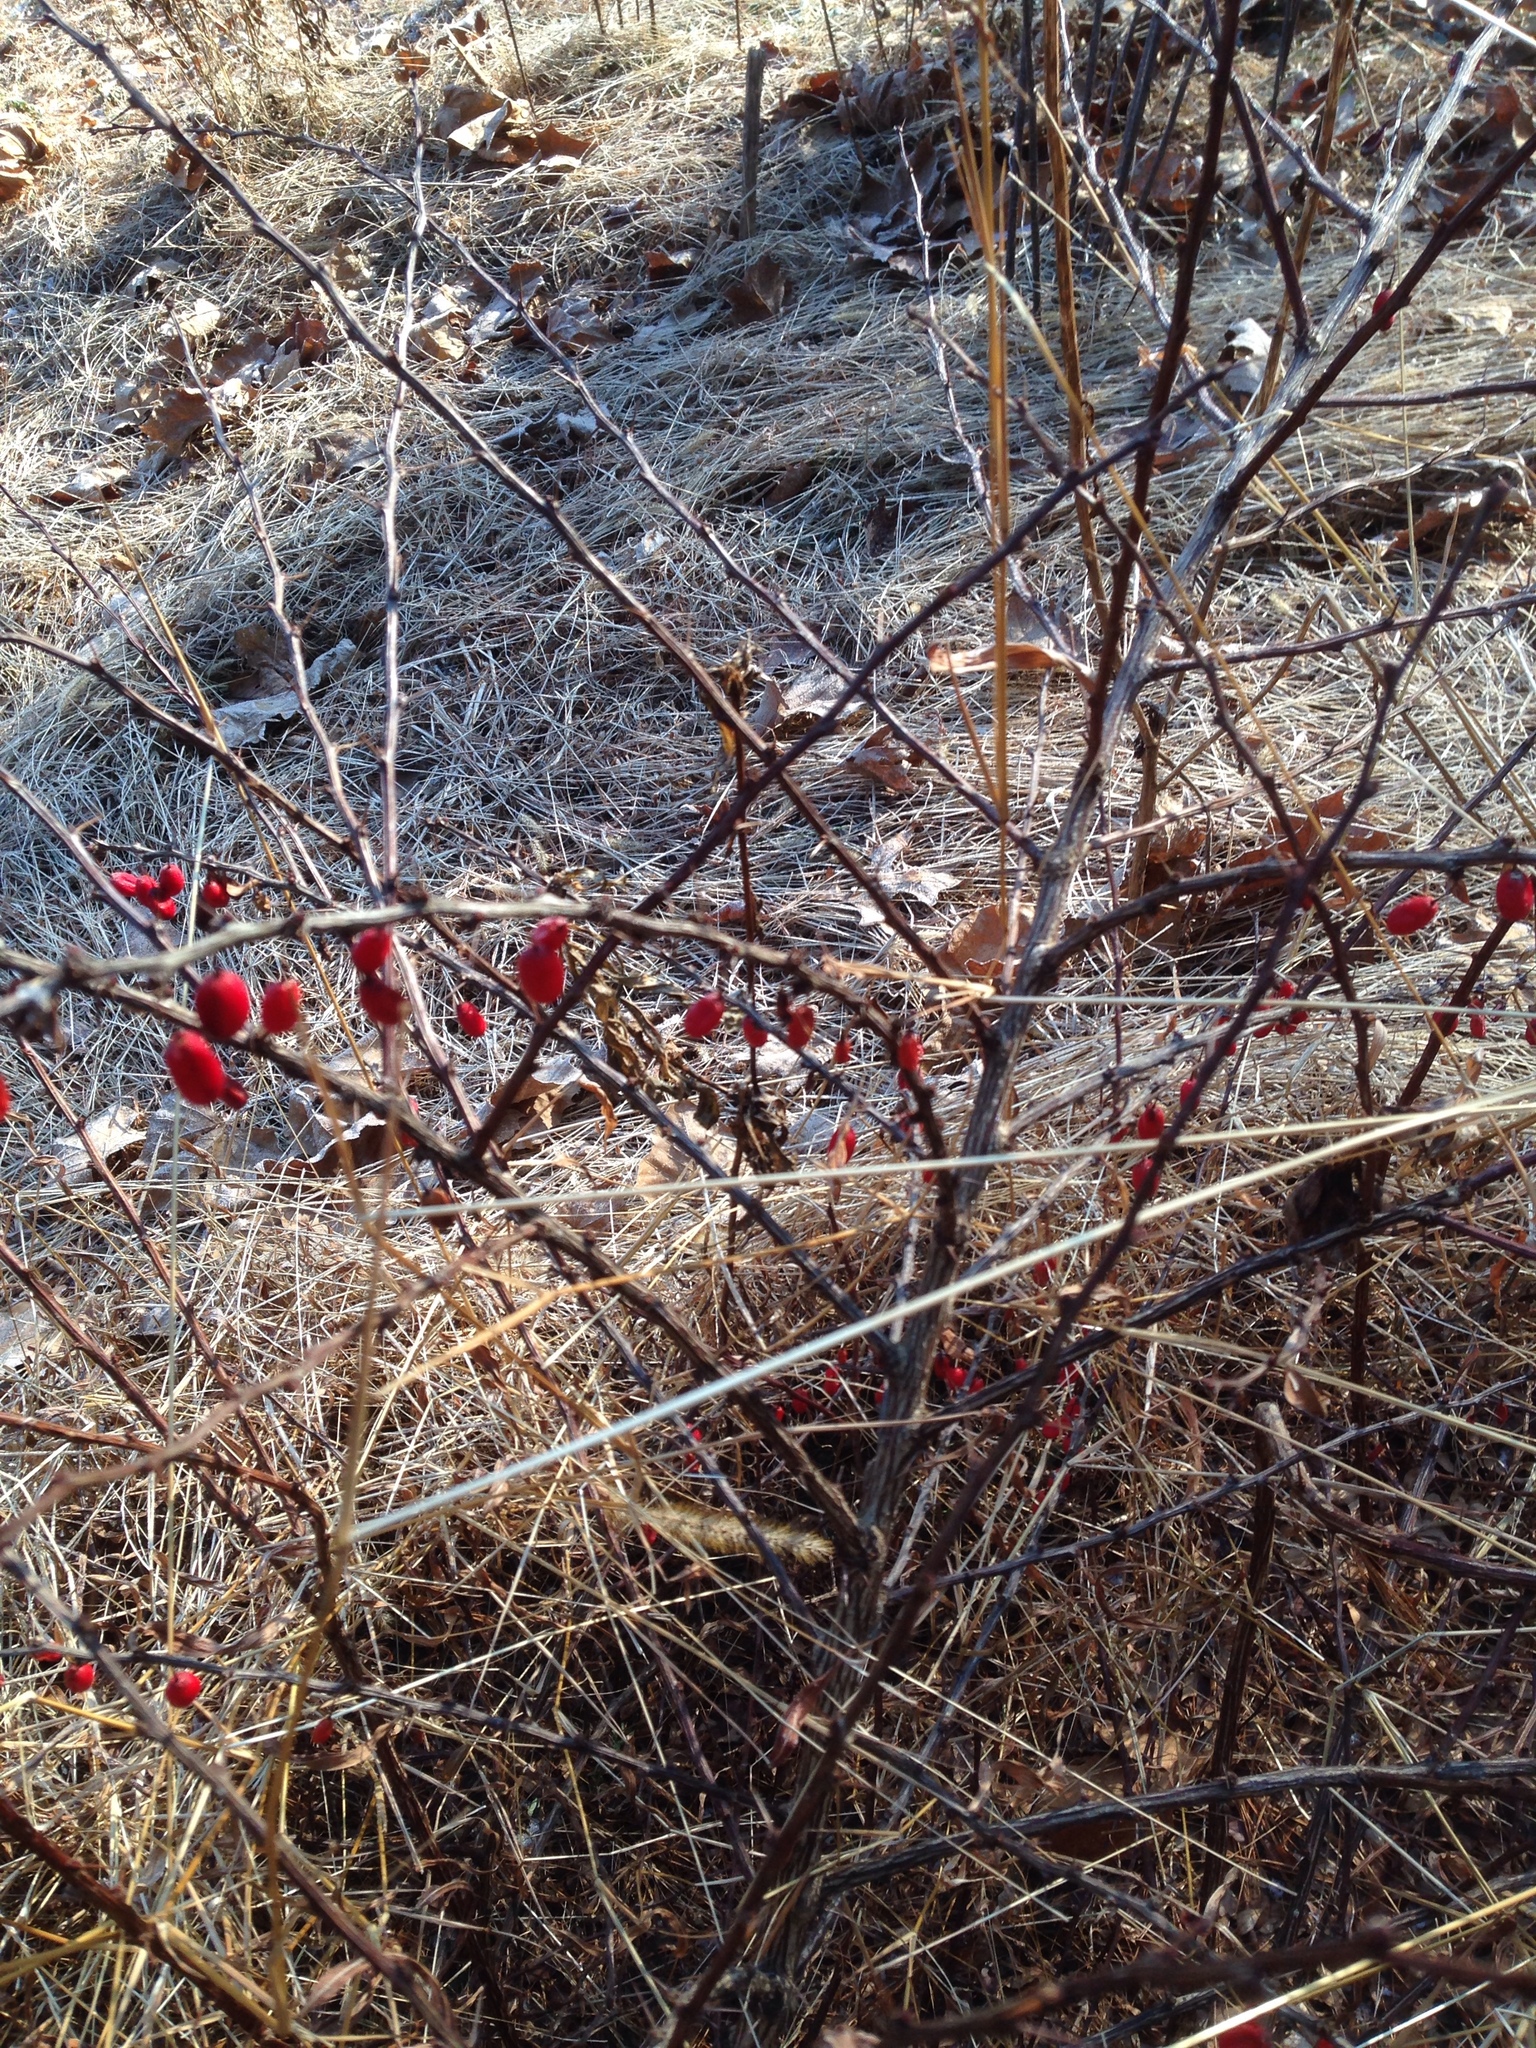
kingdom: Plantae
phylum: Tracheophyta
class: Magnoliopsida
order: Ranunculales
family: Berberidaceae
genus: Berberis
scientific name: Berberis thunbergii
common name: Japanese barberry
